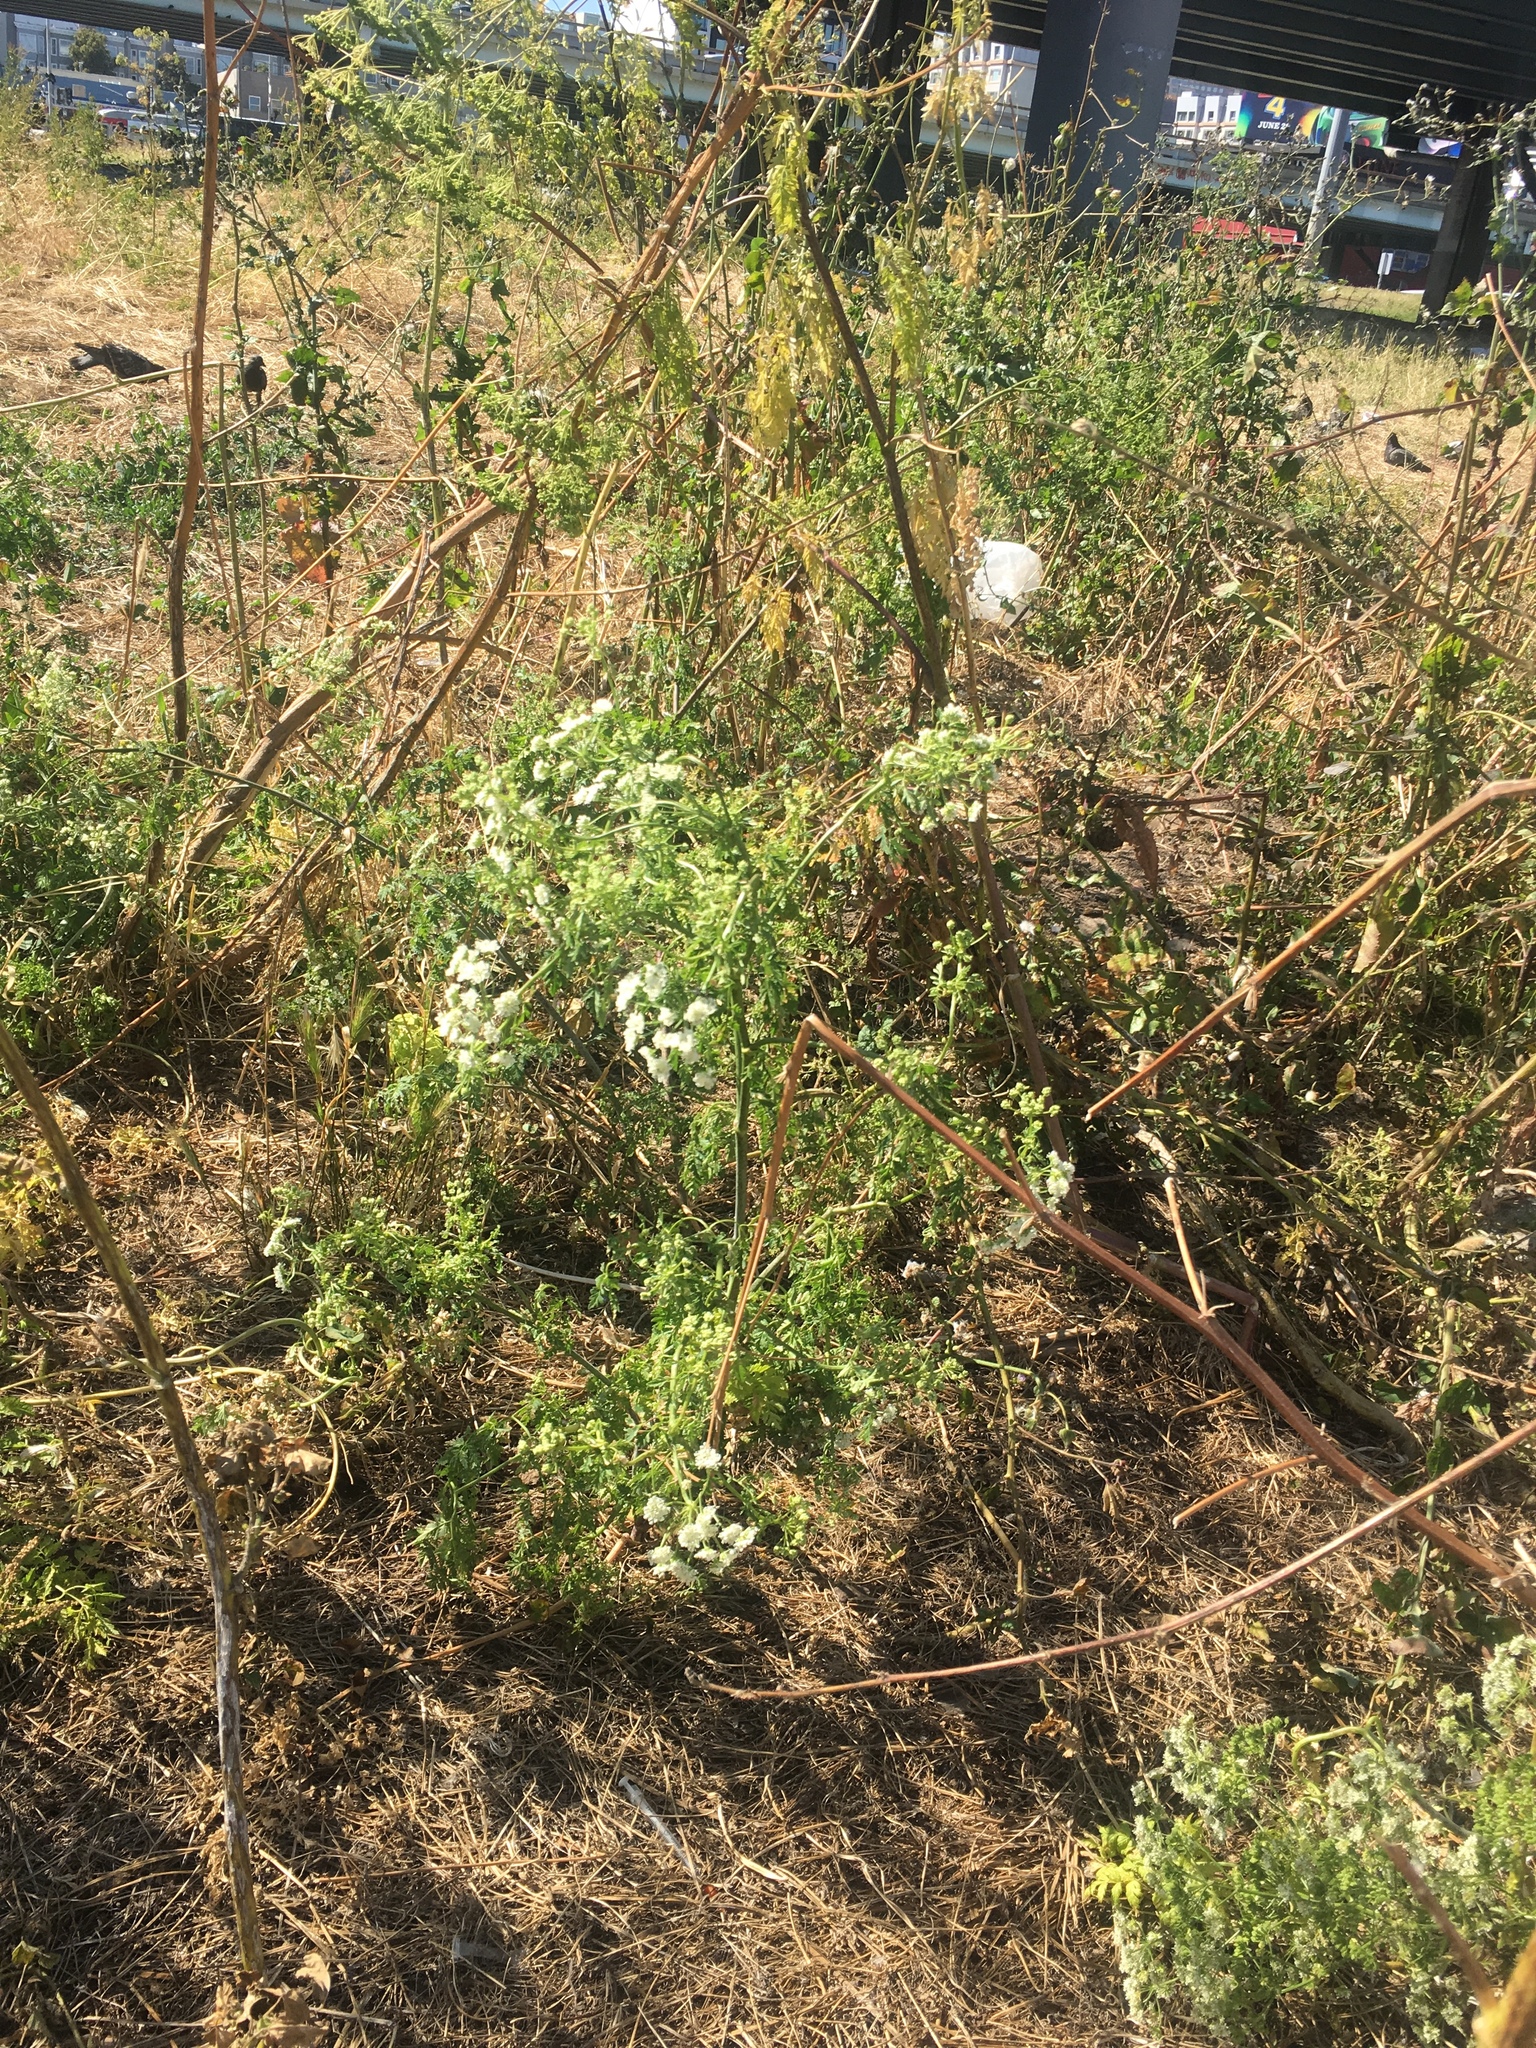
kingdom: Plantae
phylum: Tracheophyta
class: Magnoliopsida
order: Apiales
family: Apiaceae
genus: Conium
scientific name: Conium maculatum
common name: Hemlock
